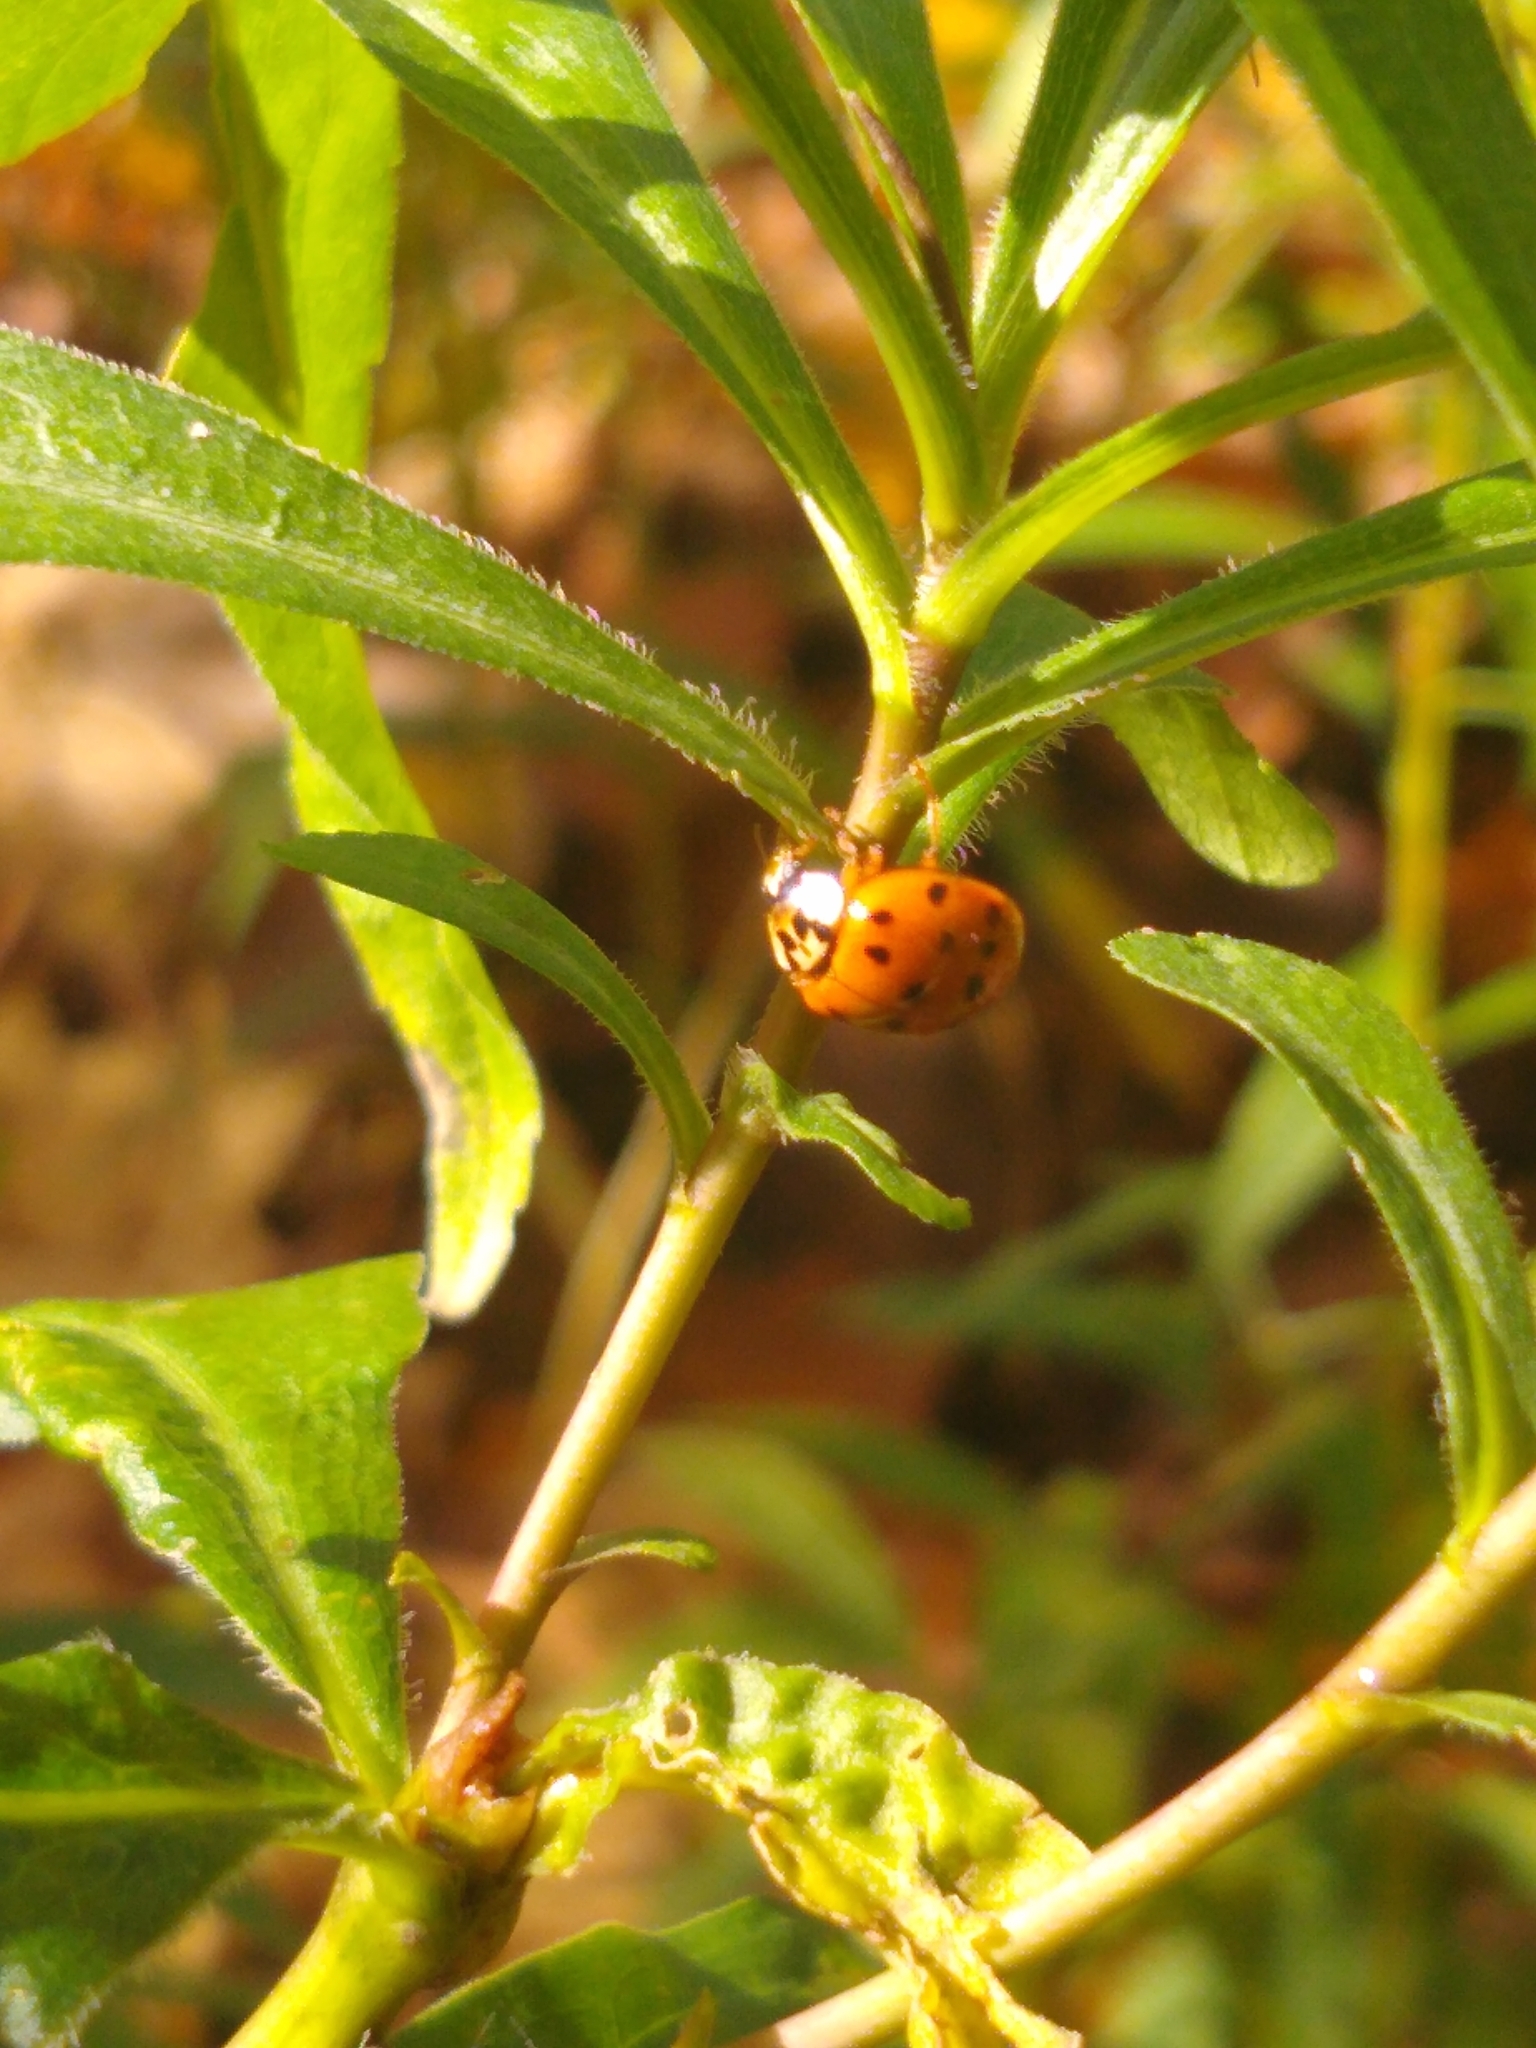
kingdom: Animalia
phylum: Arthropoda
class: Insecta
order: Coleoptera
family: Coccinellidae
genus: Harmonia
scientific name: Harmonia axyridis
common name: Harlequin ladybird
